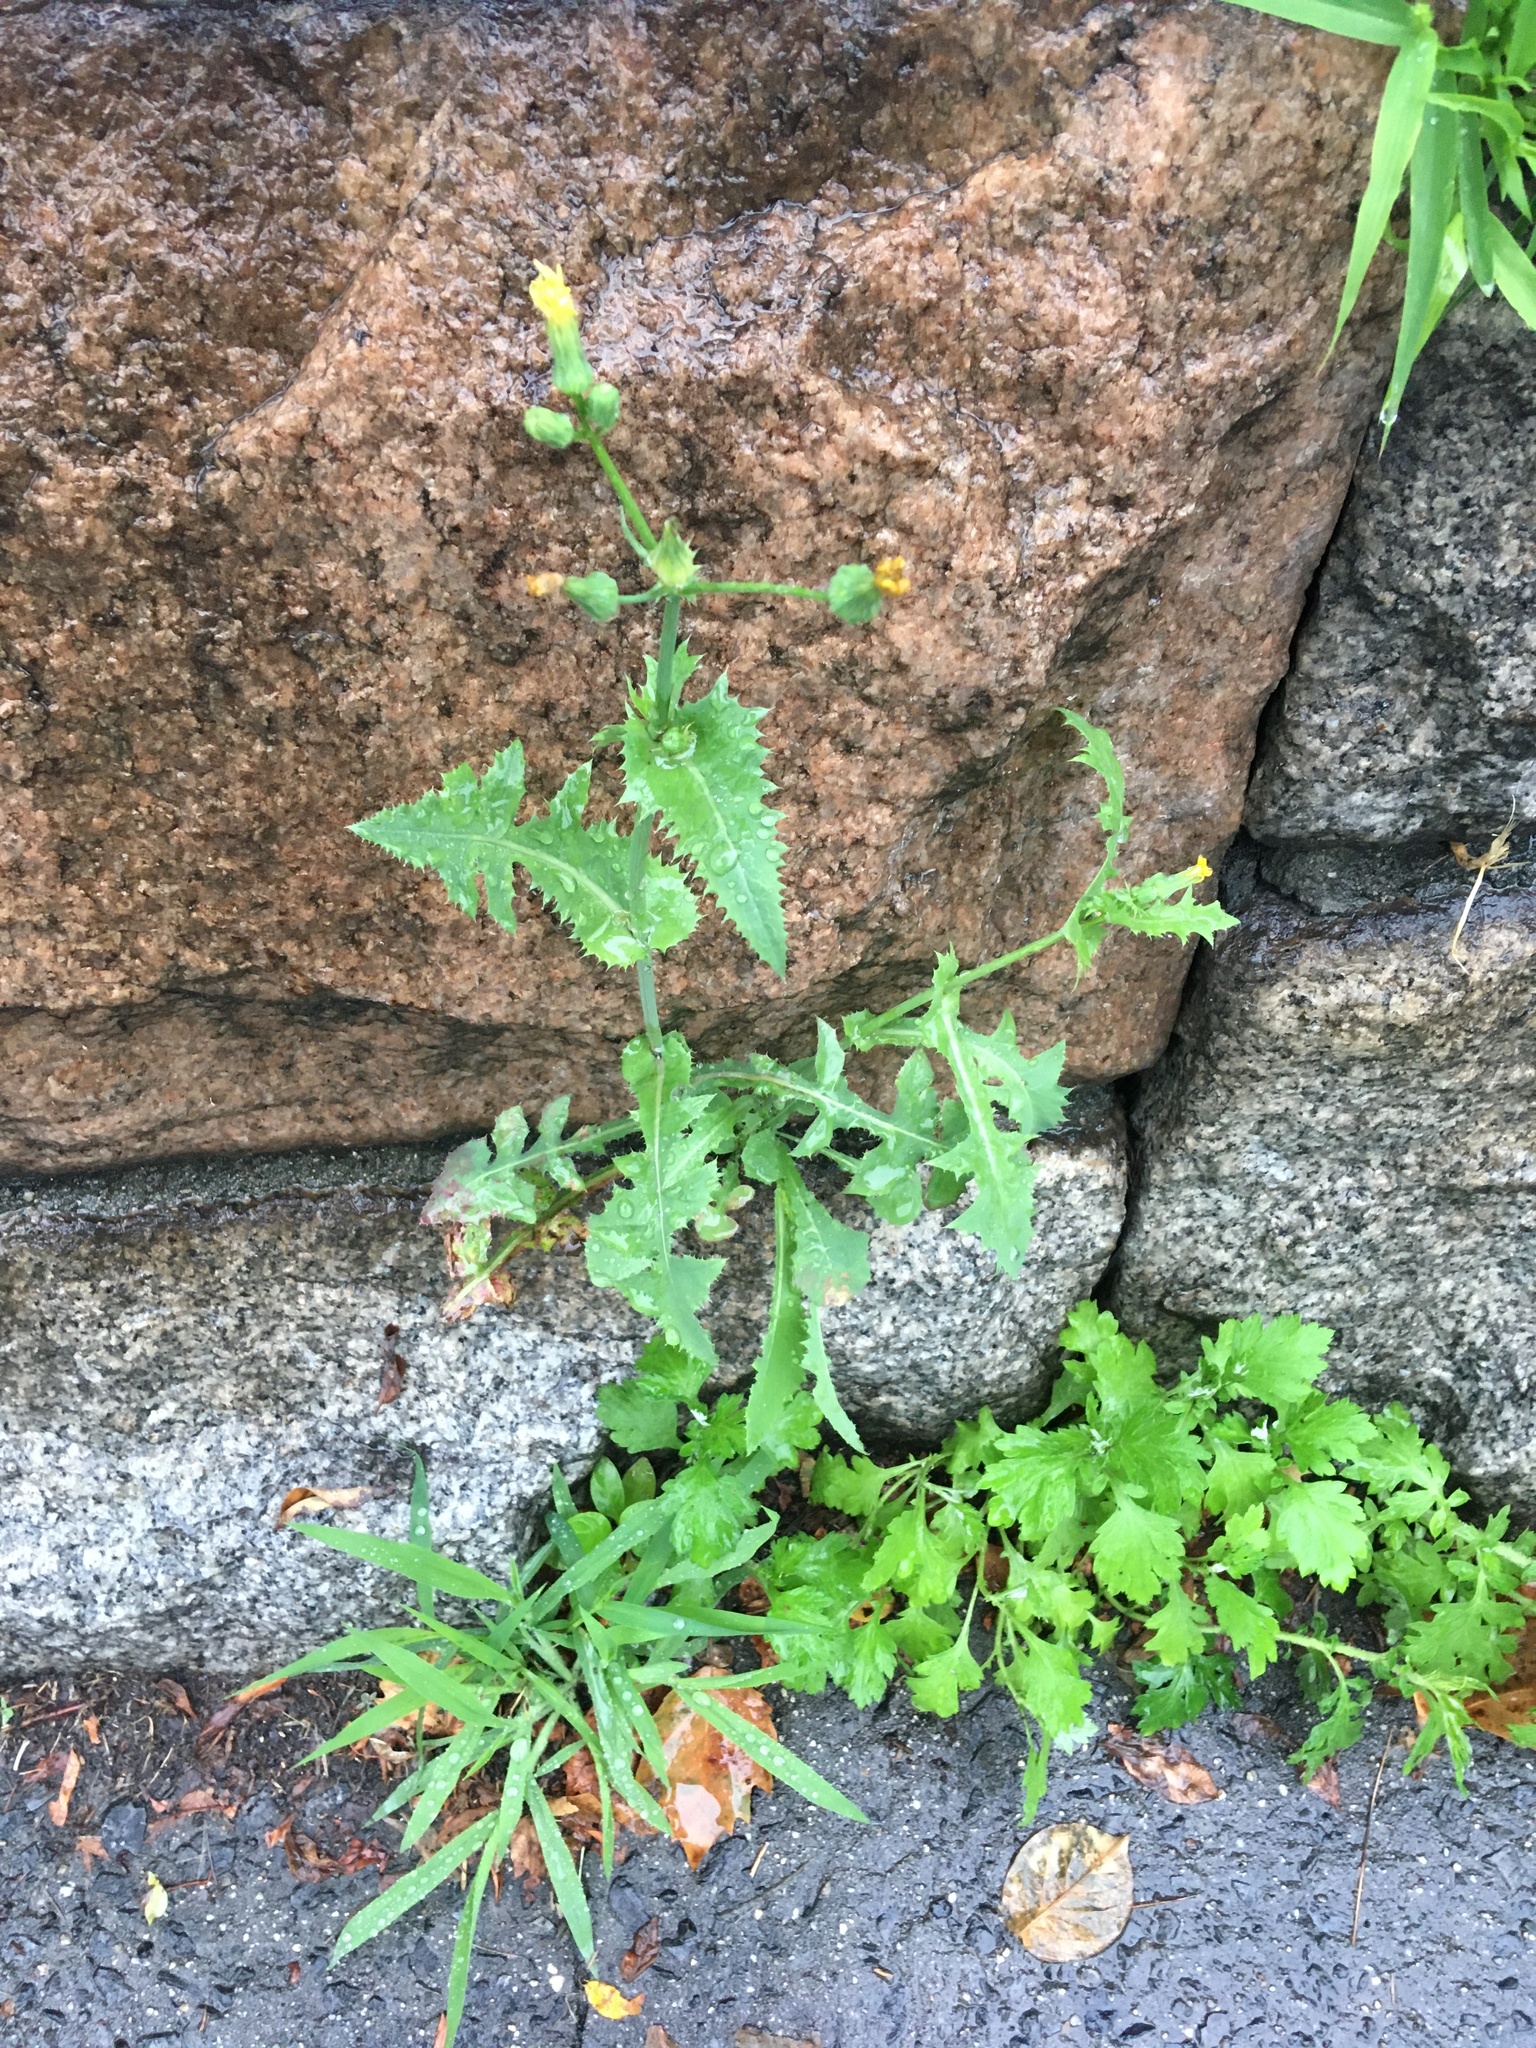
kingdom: Plantae
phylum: Tracheophyta
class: Magnoliopsida
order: Asterales
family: Asteraceae
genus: Sonchus
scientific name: Sonchus oleraceus
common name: Common sowthistle
